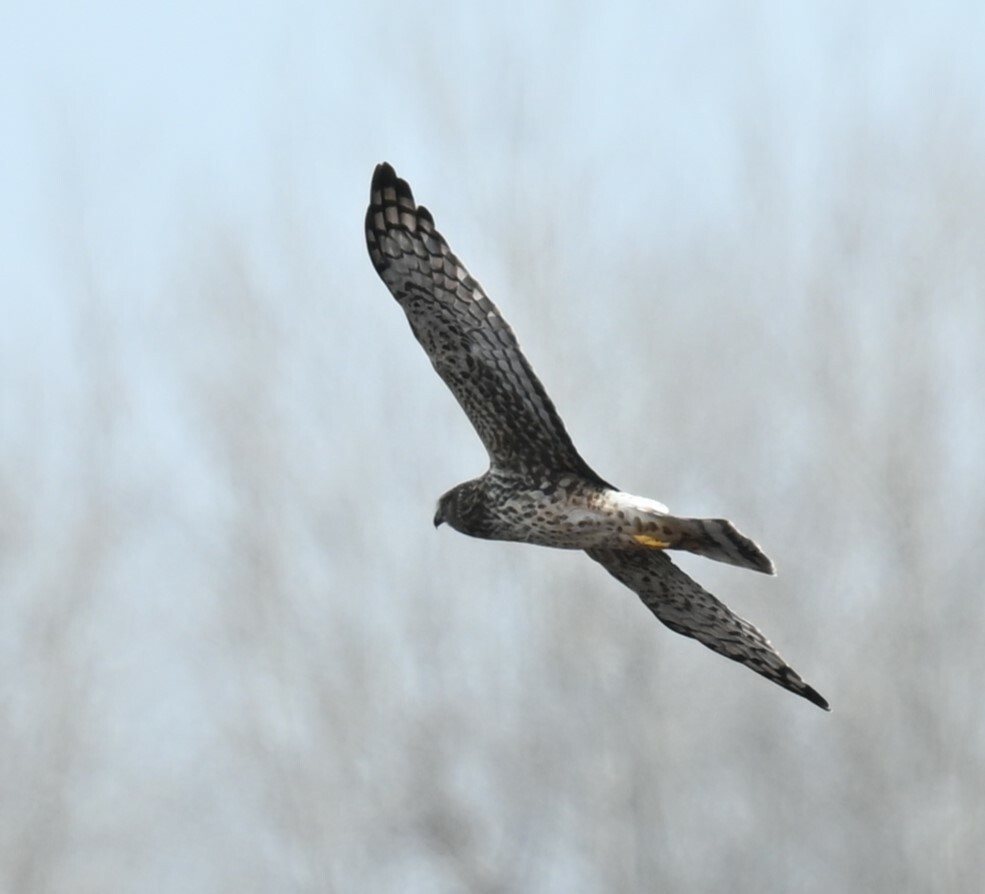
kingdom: Animalia
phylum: Chordata
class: Aves
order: Accipitriformes
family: Accipitridae
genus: Circus
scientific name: Circus cyaneus
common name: Hen harrier
